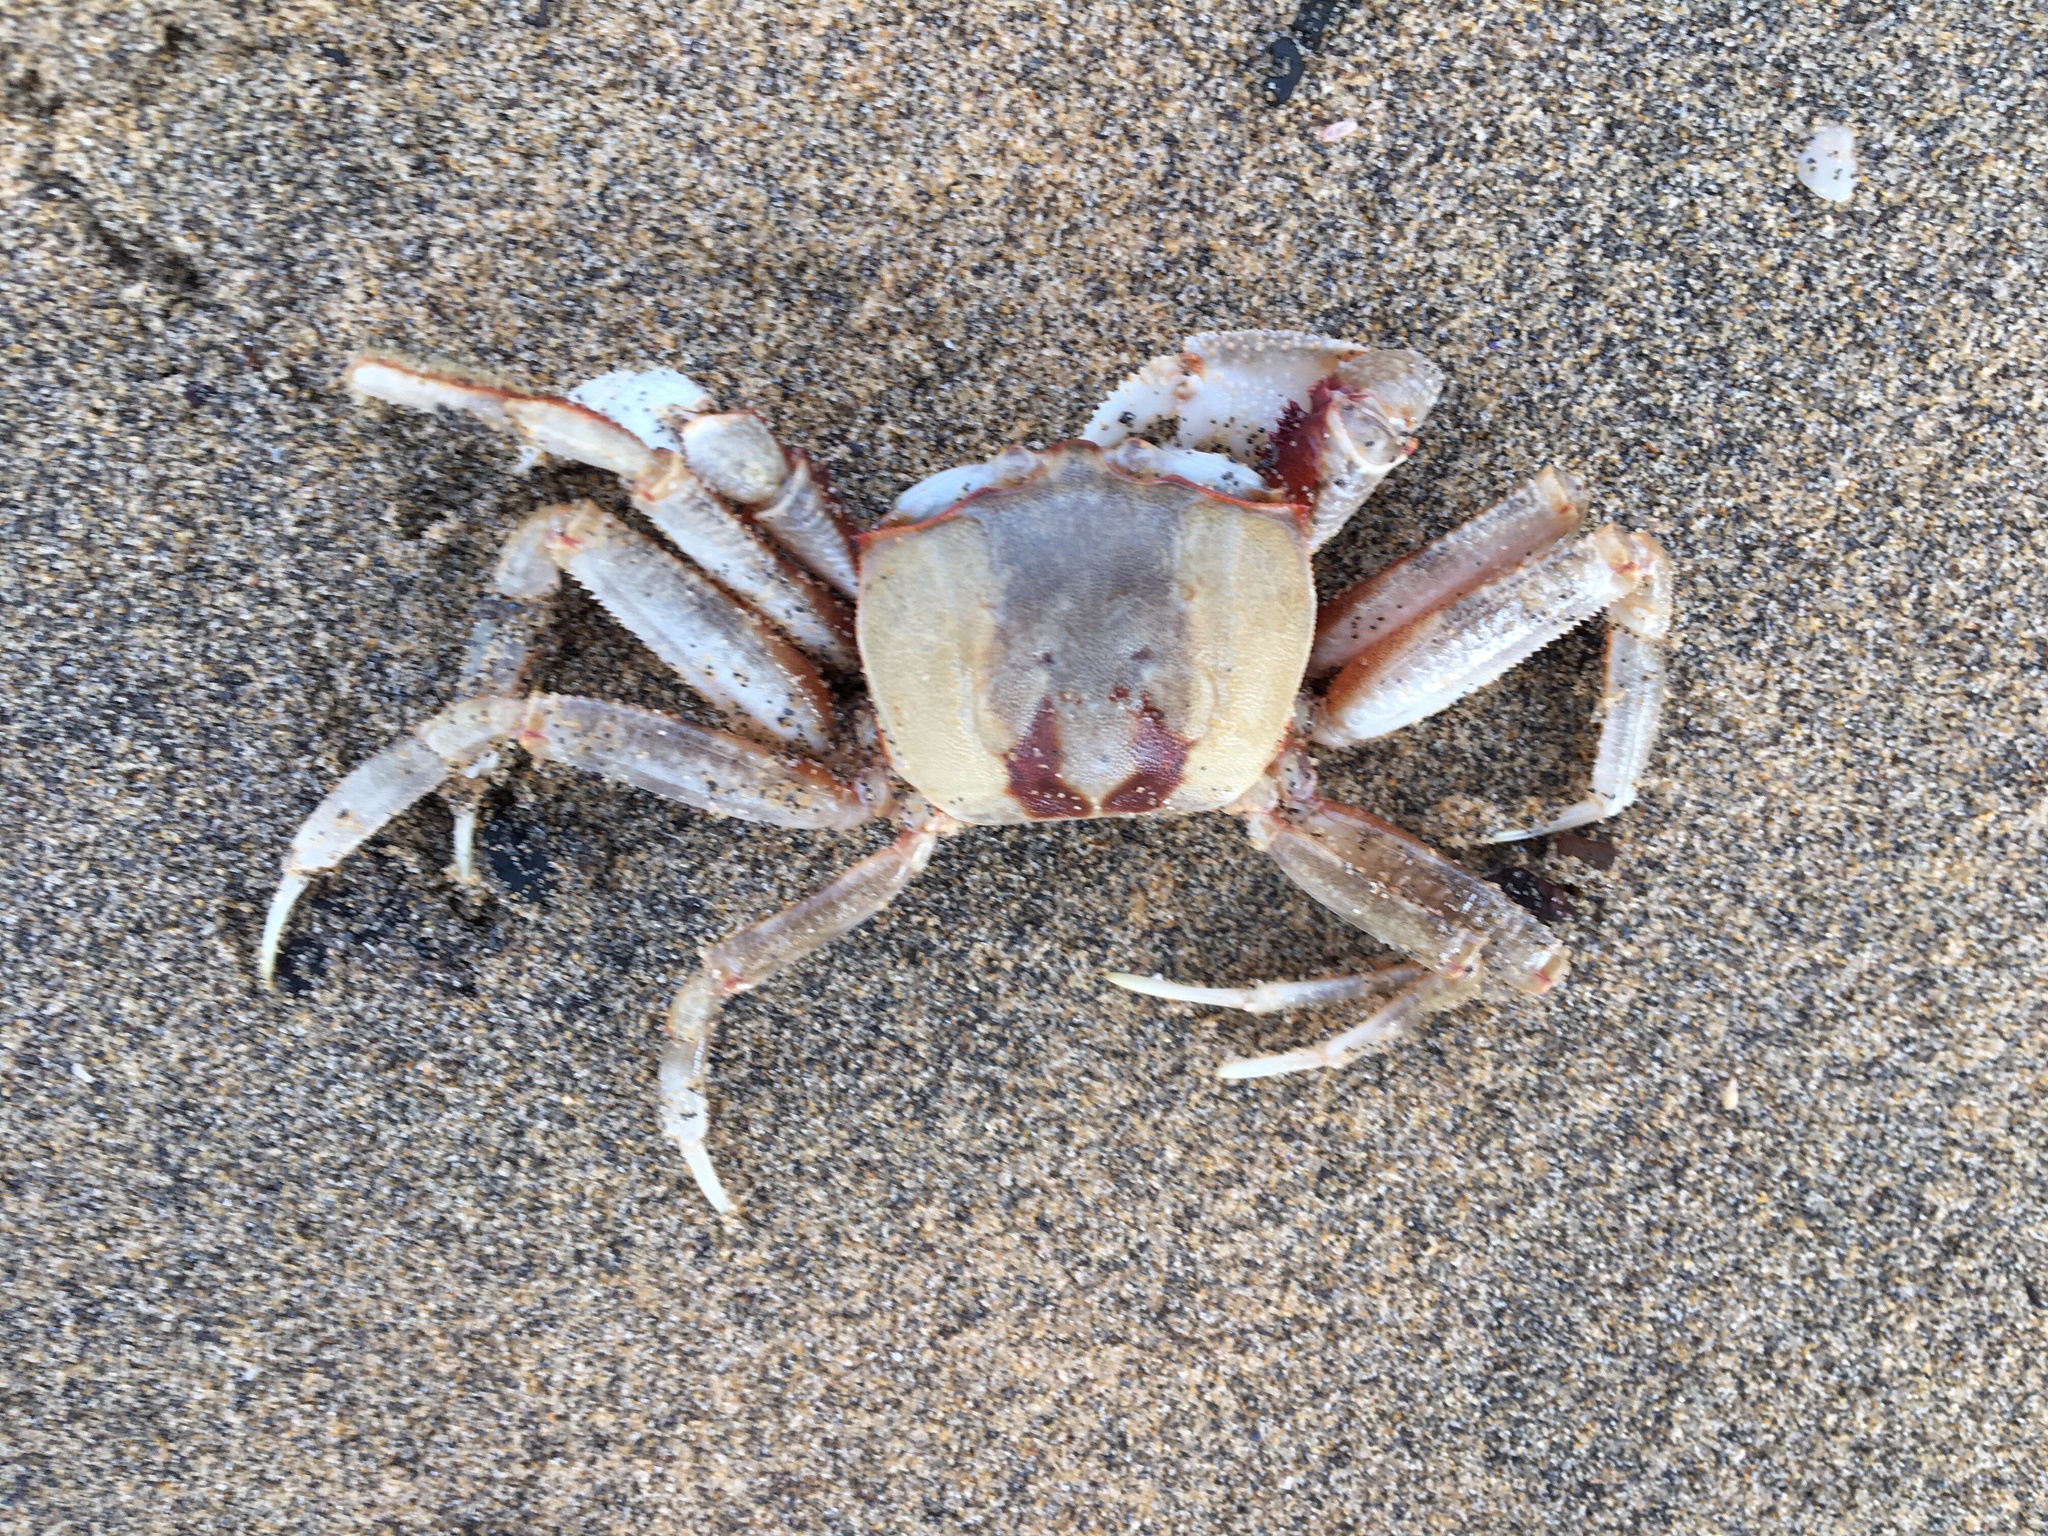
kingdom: Animalia
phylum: Arthropoda
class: Malacostraca
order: Decapoda
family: Ocypodidae
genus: Ocypode
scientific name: Ocypode ceratophthalmus
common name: Indo-pacific ghost crab
